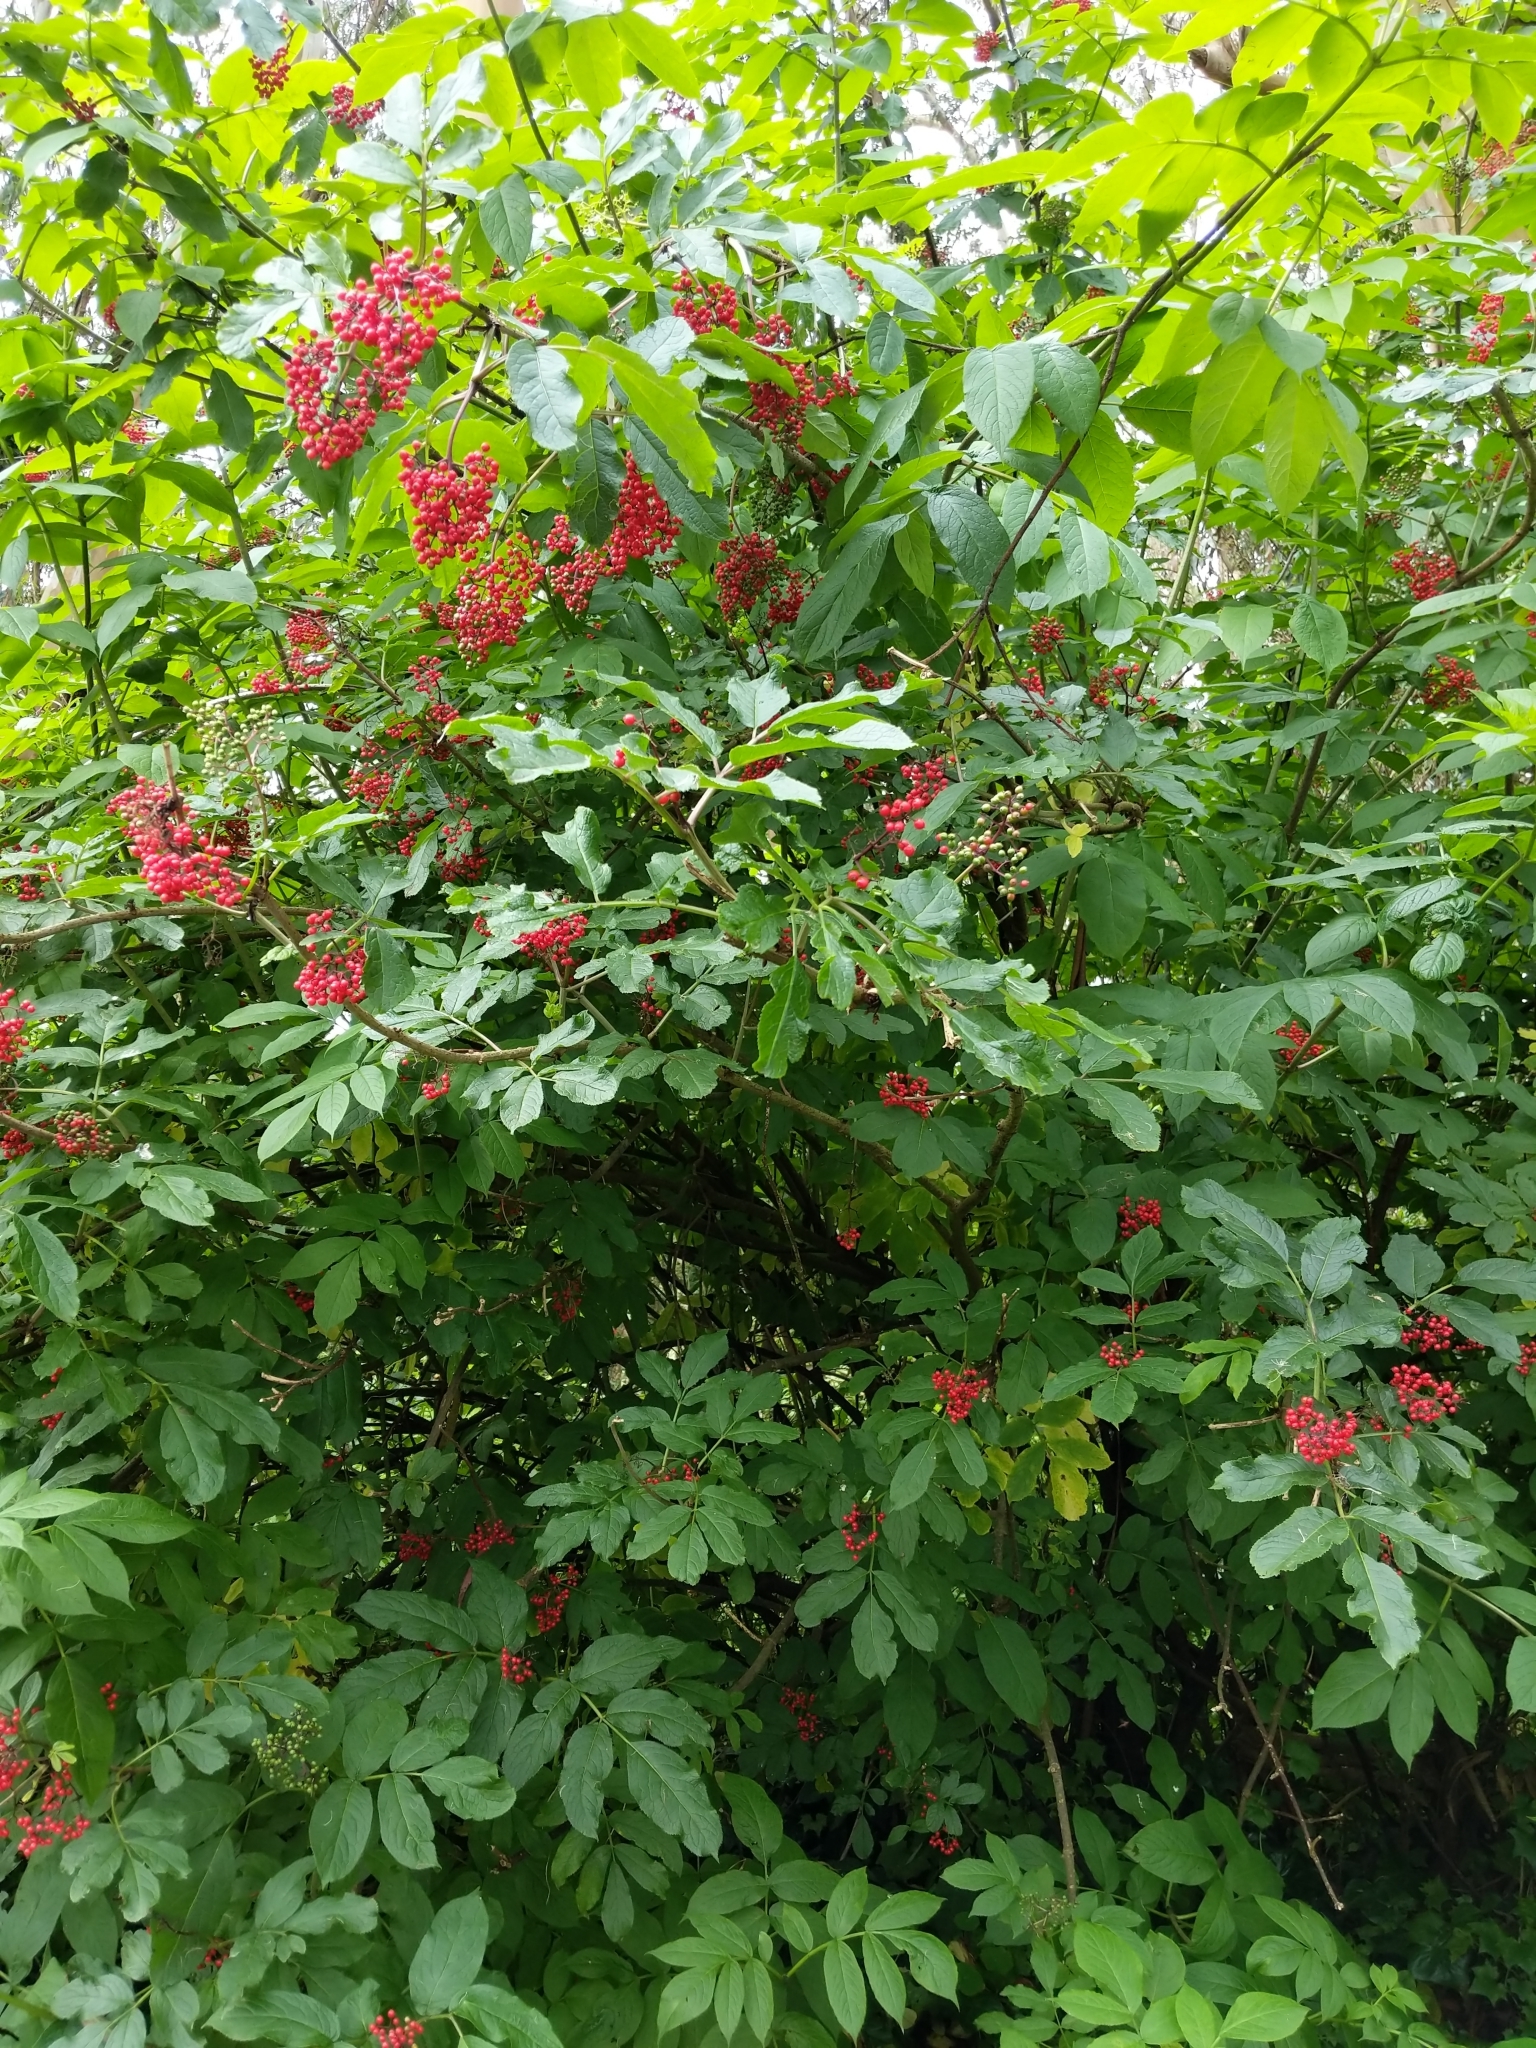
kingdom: Plantae
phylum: Tracheophyta
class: Magnoliopsida
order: Dipsacales
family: Viburnaceae
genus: Sambucus
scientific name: Sambucus racemosa
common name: Red-berried elder
